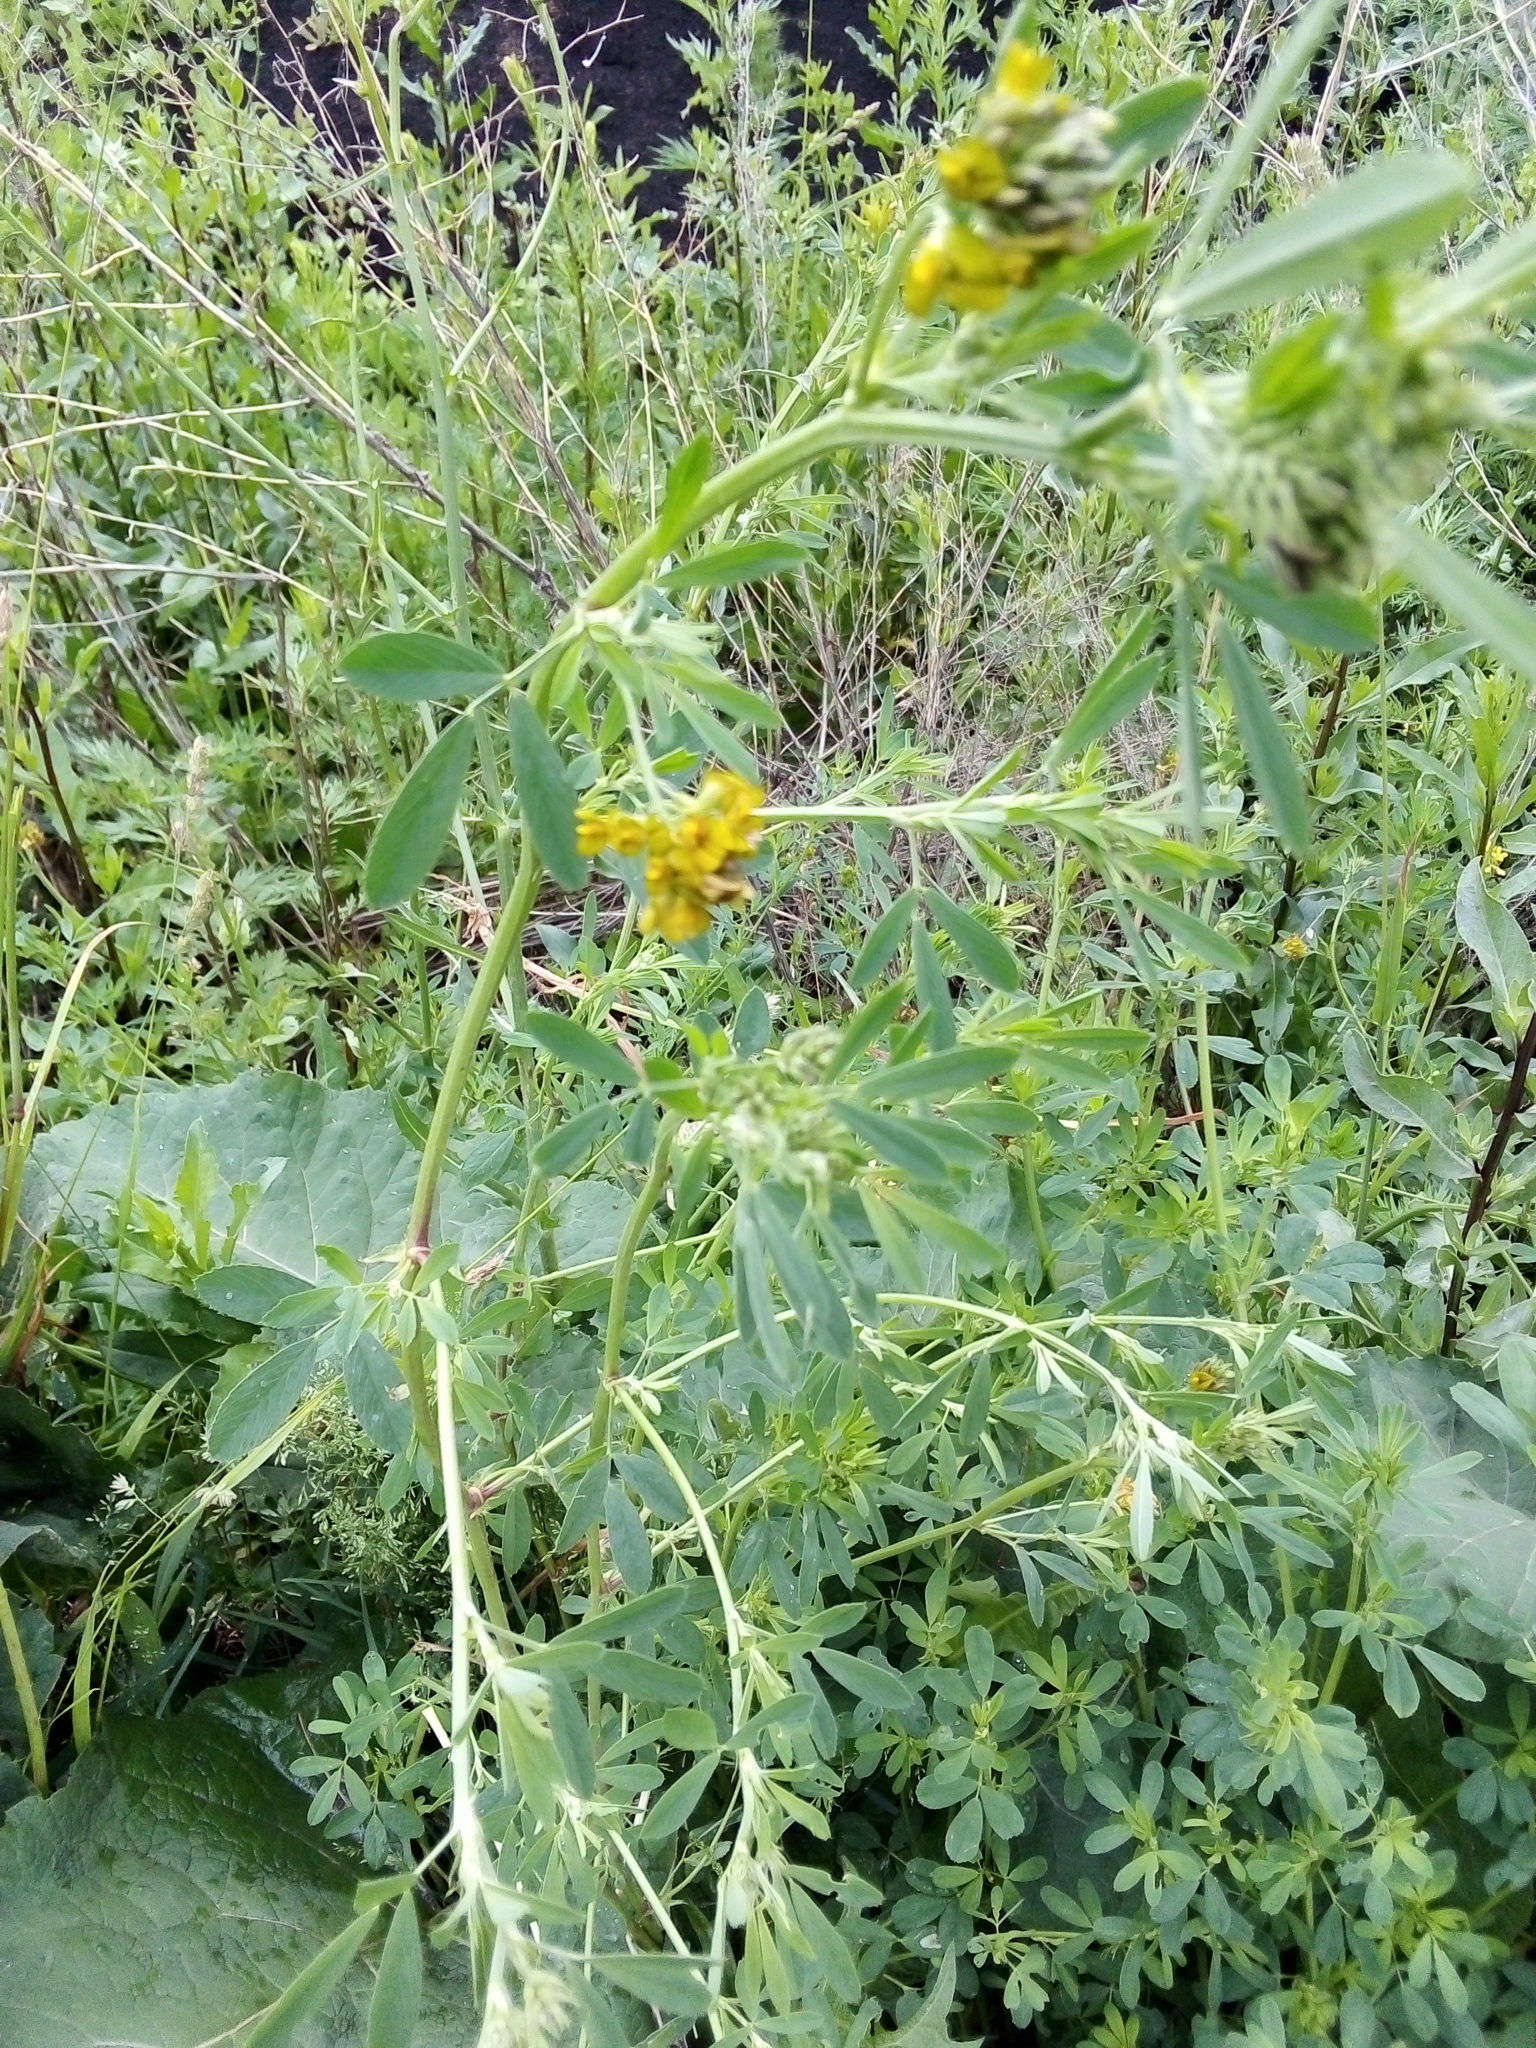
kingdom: Plantae
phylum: Tracheophyta
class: Magnoliopsida
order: Fabales
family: Fabaceae
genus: Medicago
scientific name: Medicago varia
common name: Sand lucerne
